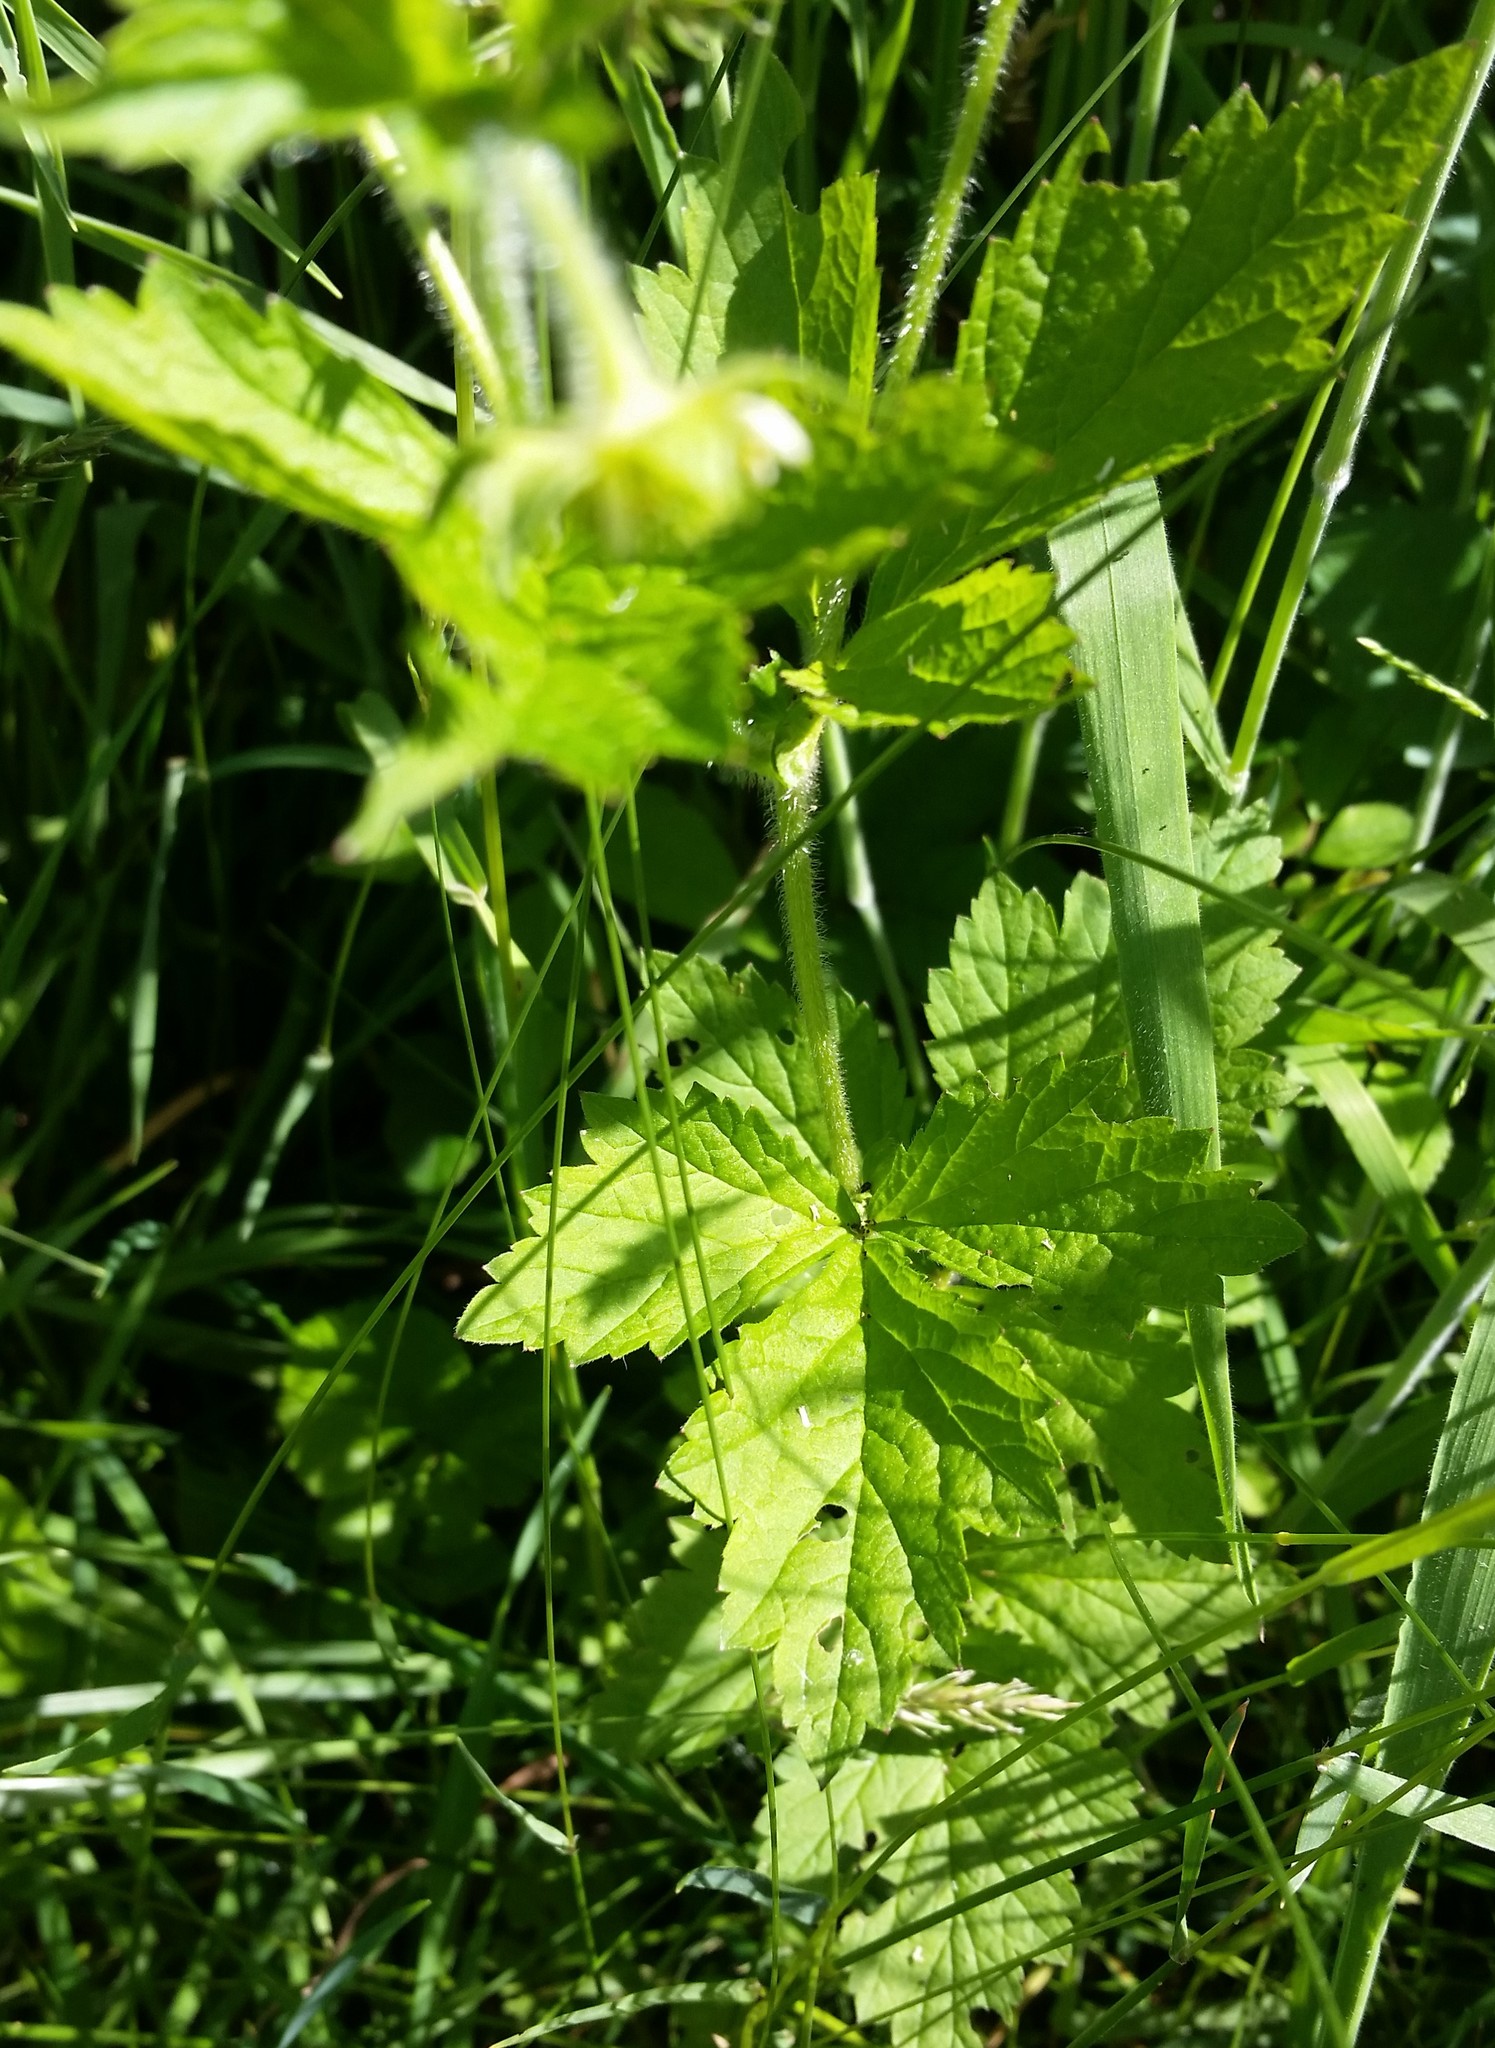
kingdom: Plantae
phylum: Tracheophyta
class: Magnoliopsida
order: Rosales
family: Rosaceae
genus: Geum
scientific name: Geum laciniatum
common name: Rough avens
